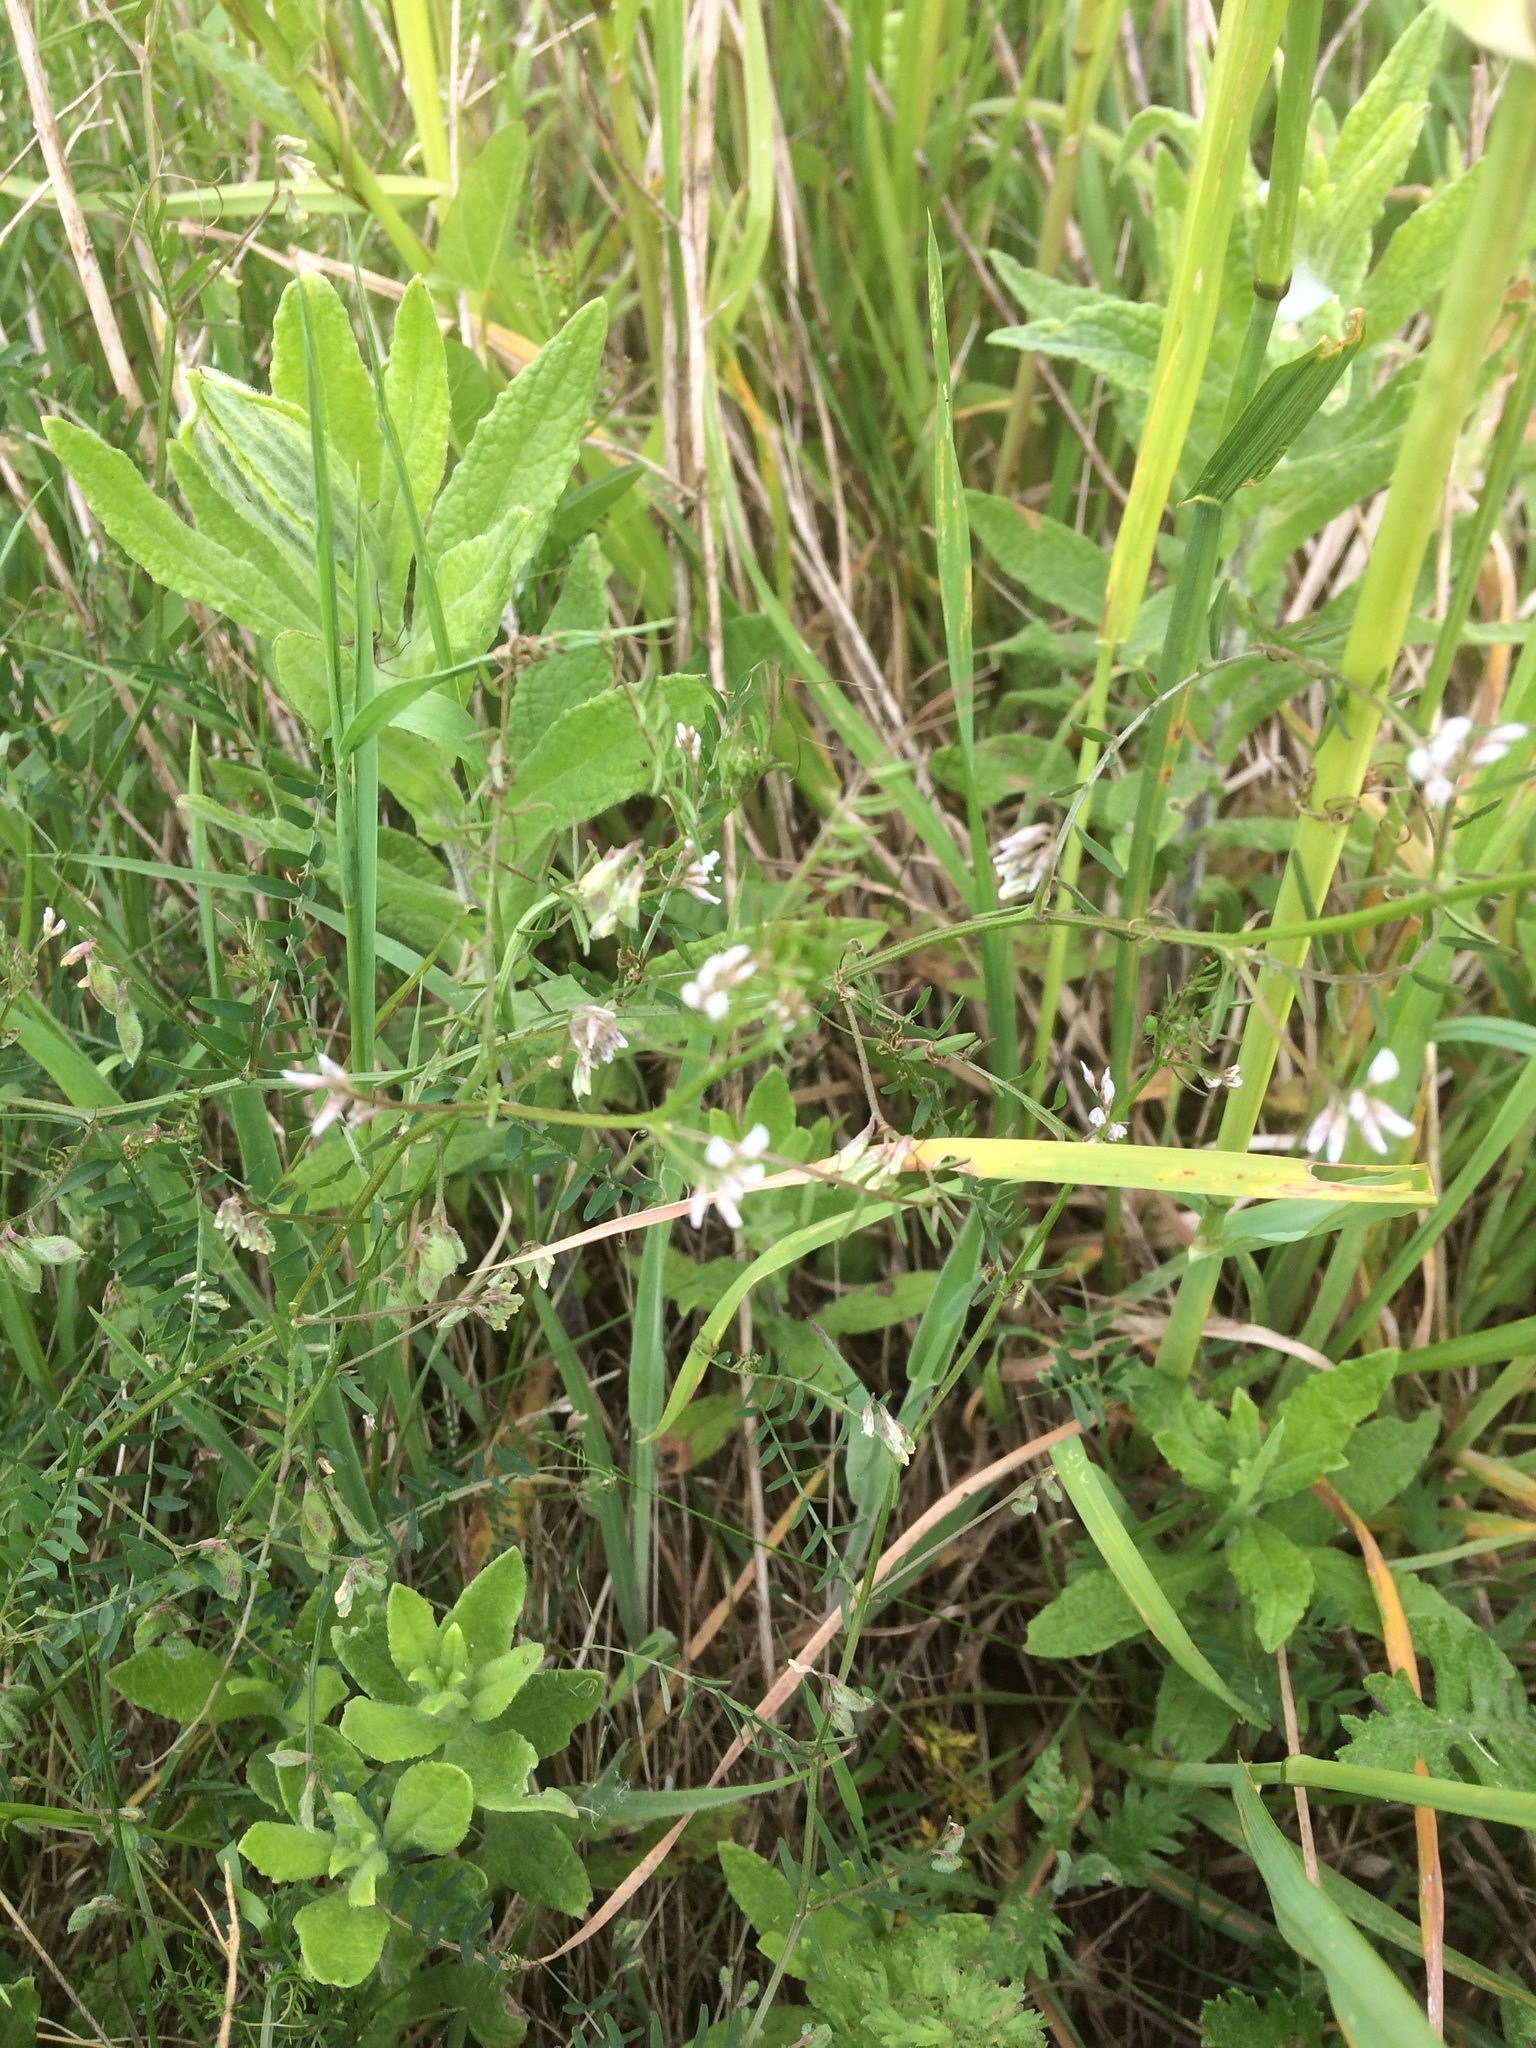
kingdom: Plantae
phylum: Tracheophyta
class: Magnoliopsida
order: Fabales
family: Fabaceae
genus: Vicia
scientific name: Vicia hirsuta
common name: Tiny vetch
